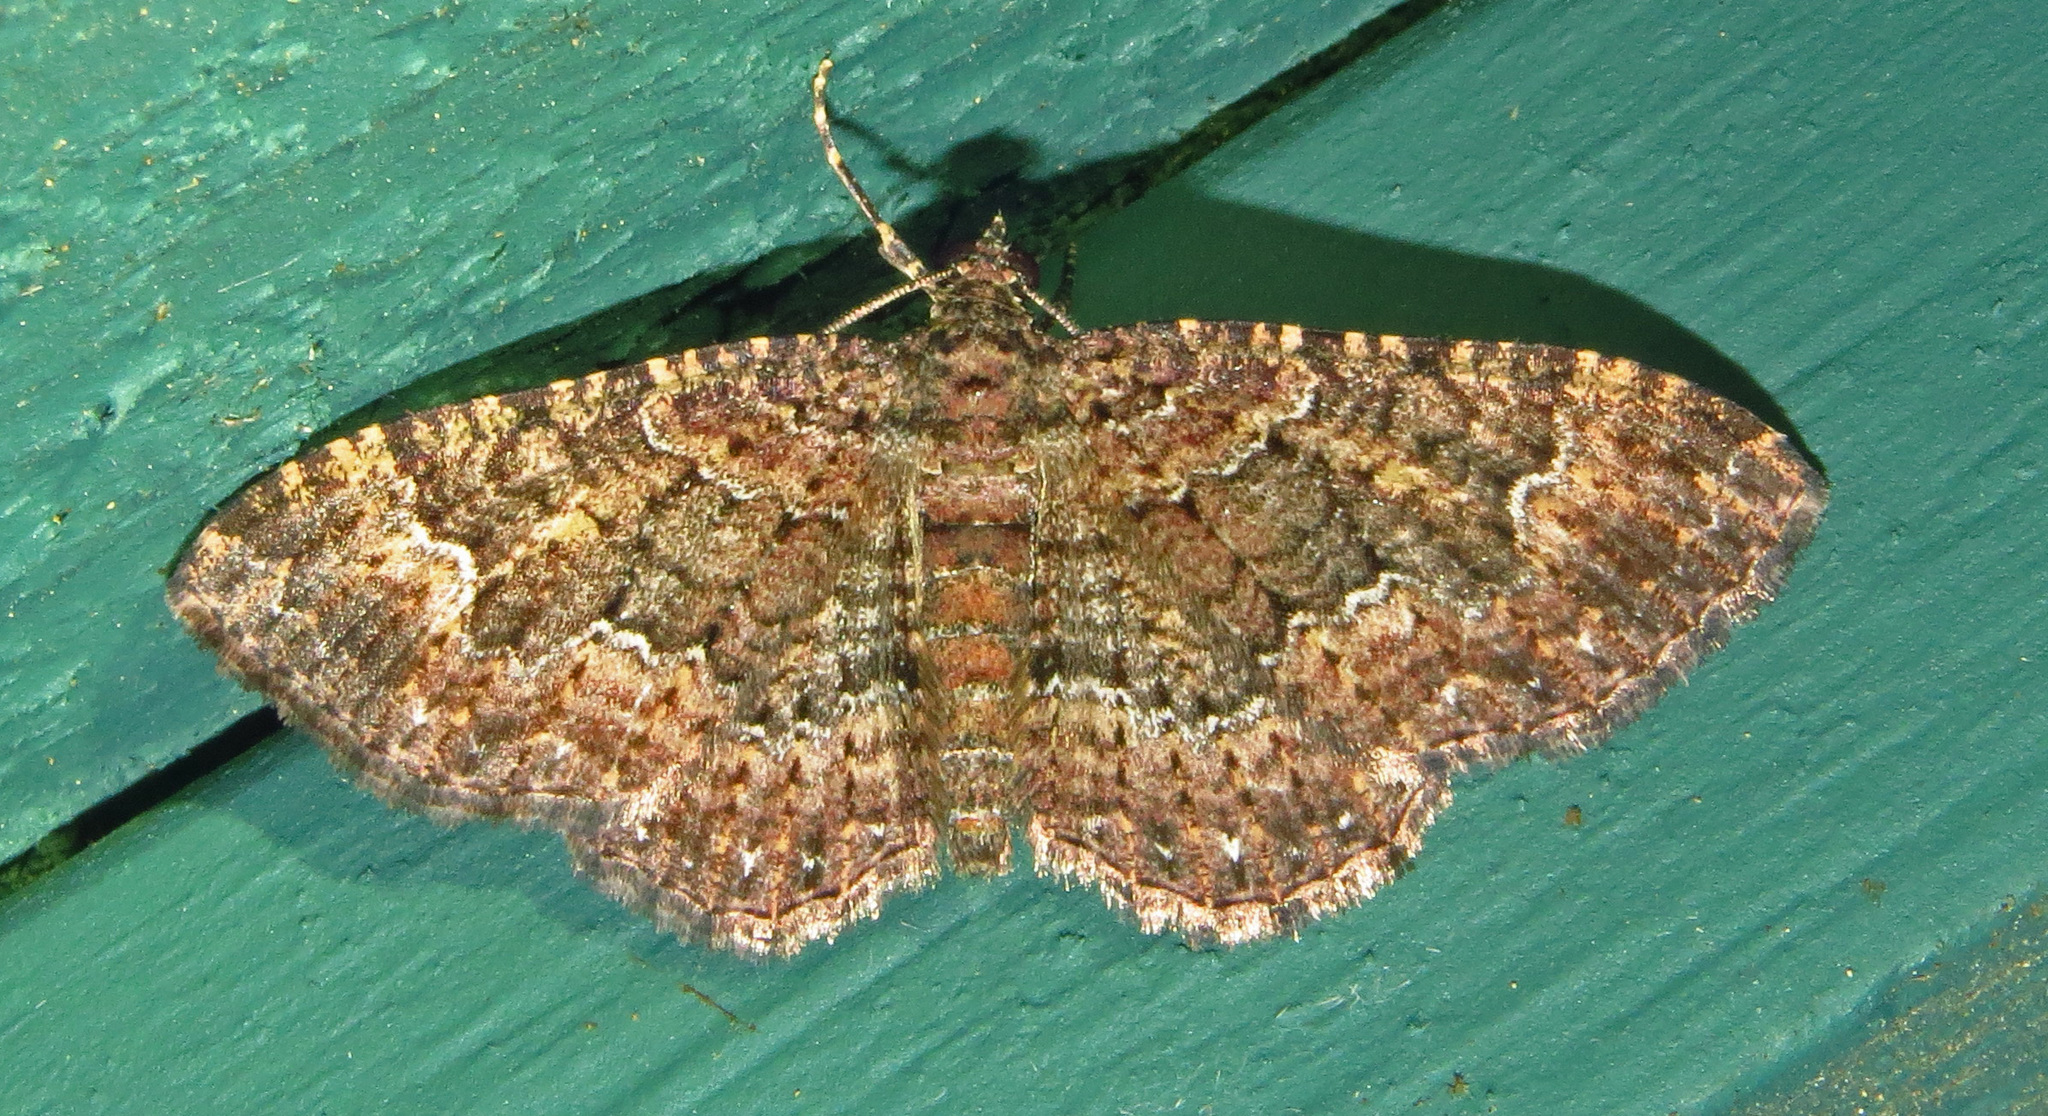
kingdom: Animalia
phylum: Arthropoda
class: Insecta
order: Lepidoptera
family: Geometridae
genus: Disclisioprocta
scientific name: Disclisioprocta stellata
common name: Somber carpet
